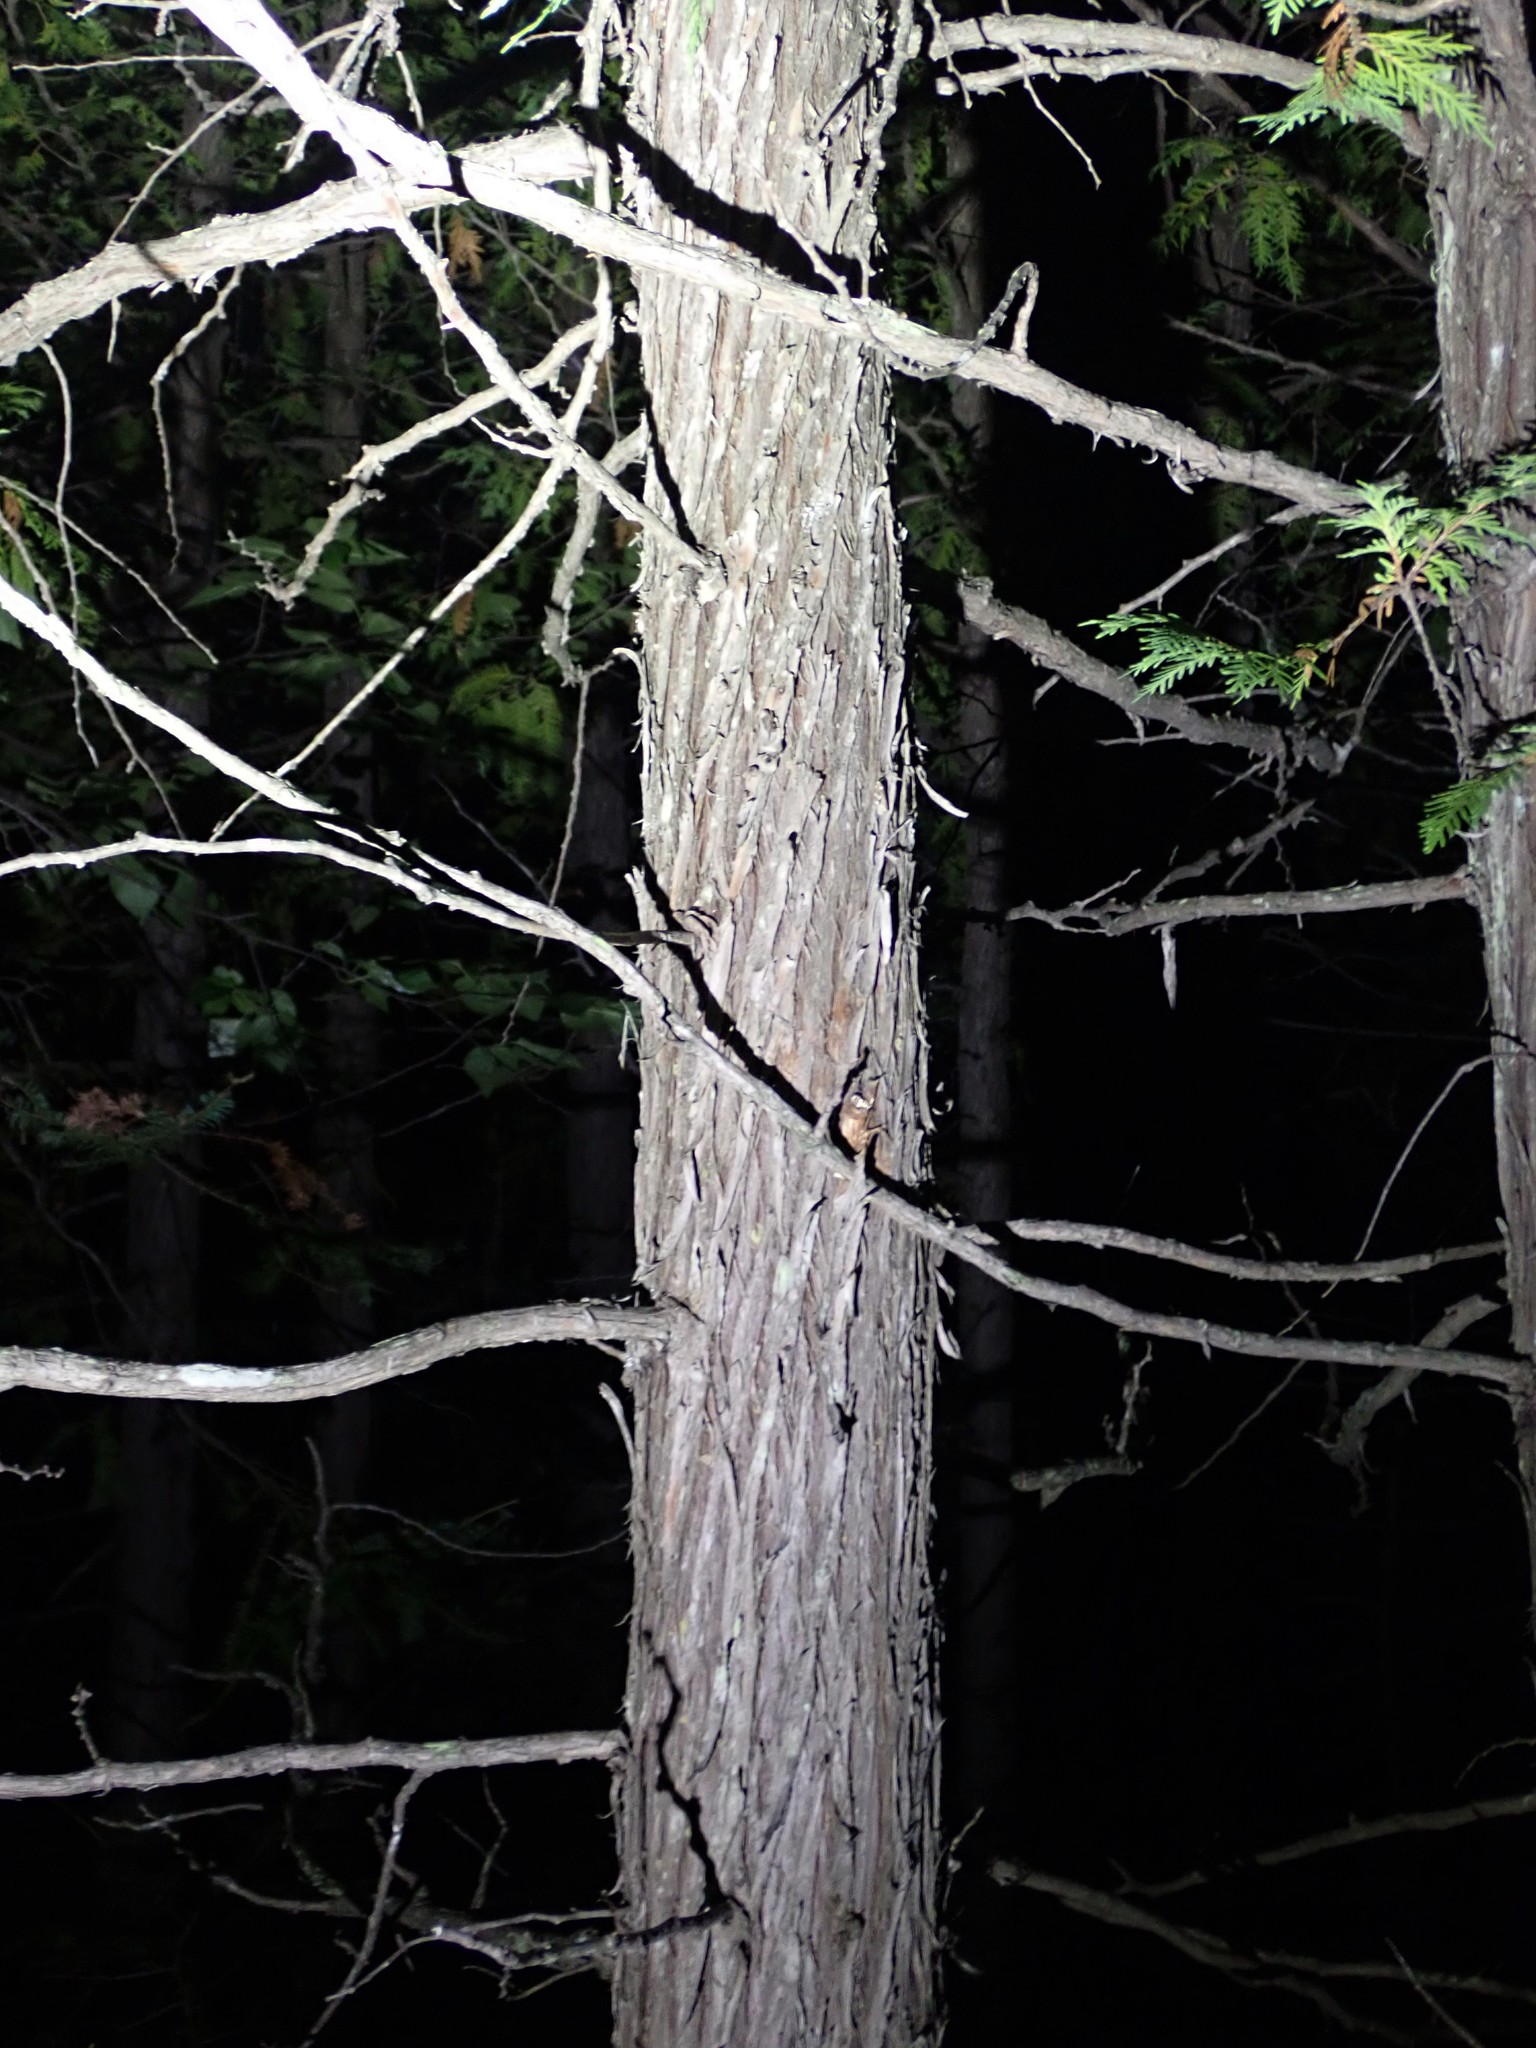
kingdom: Plantae
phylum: Tracheophyta
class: Pinopsida
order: Pinales
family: Cupressaceae
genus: Thuja
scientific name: Thuja occidentalis
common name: Northern white-cedar
